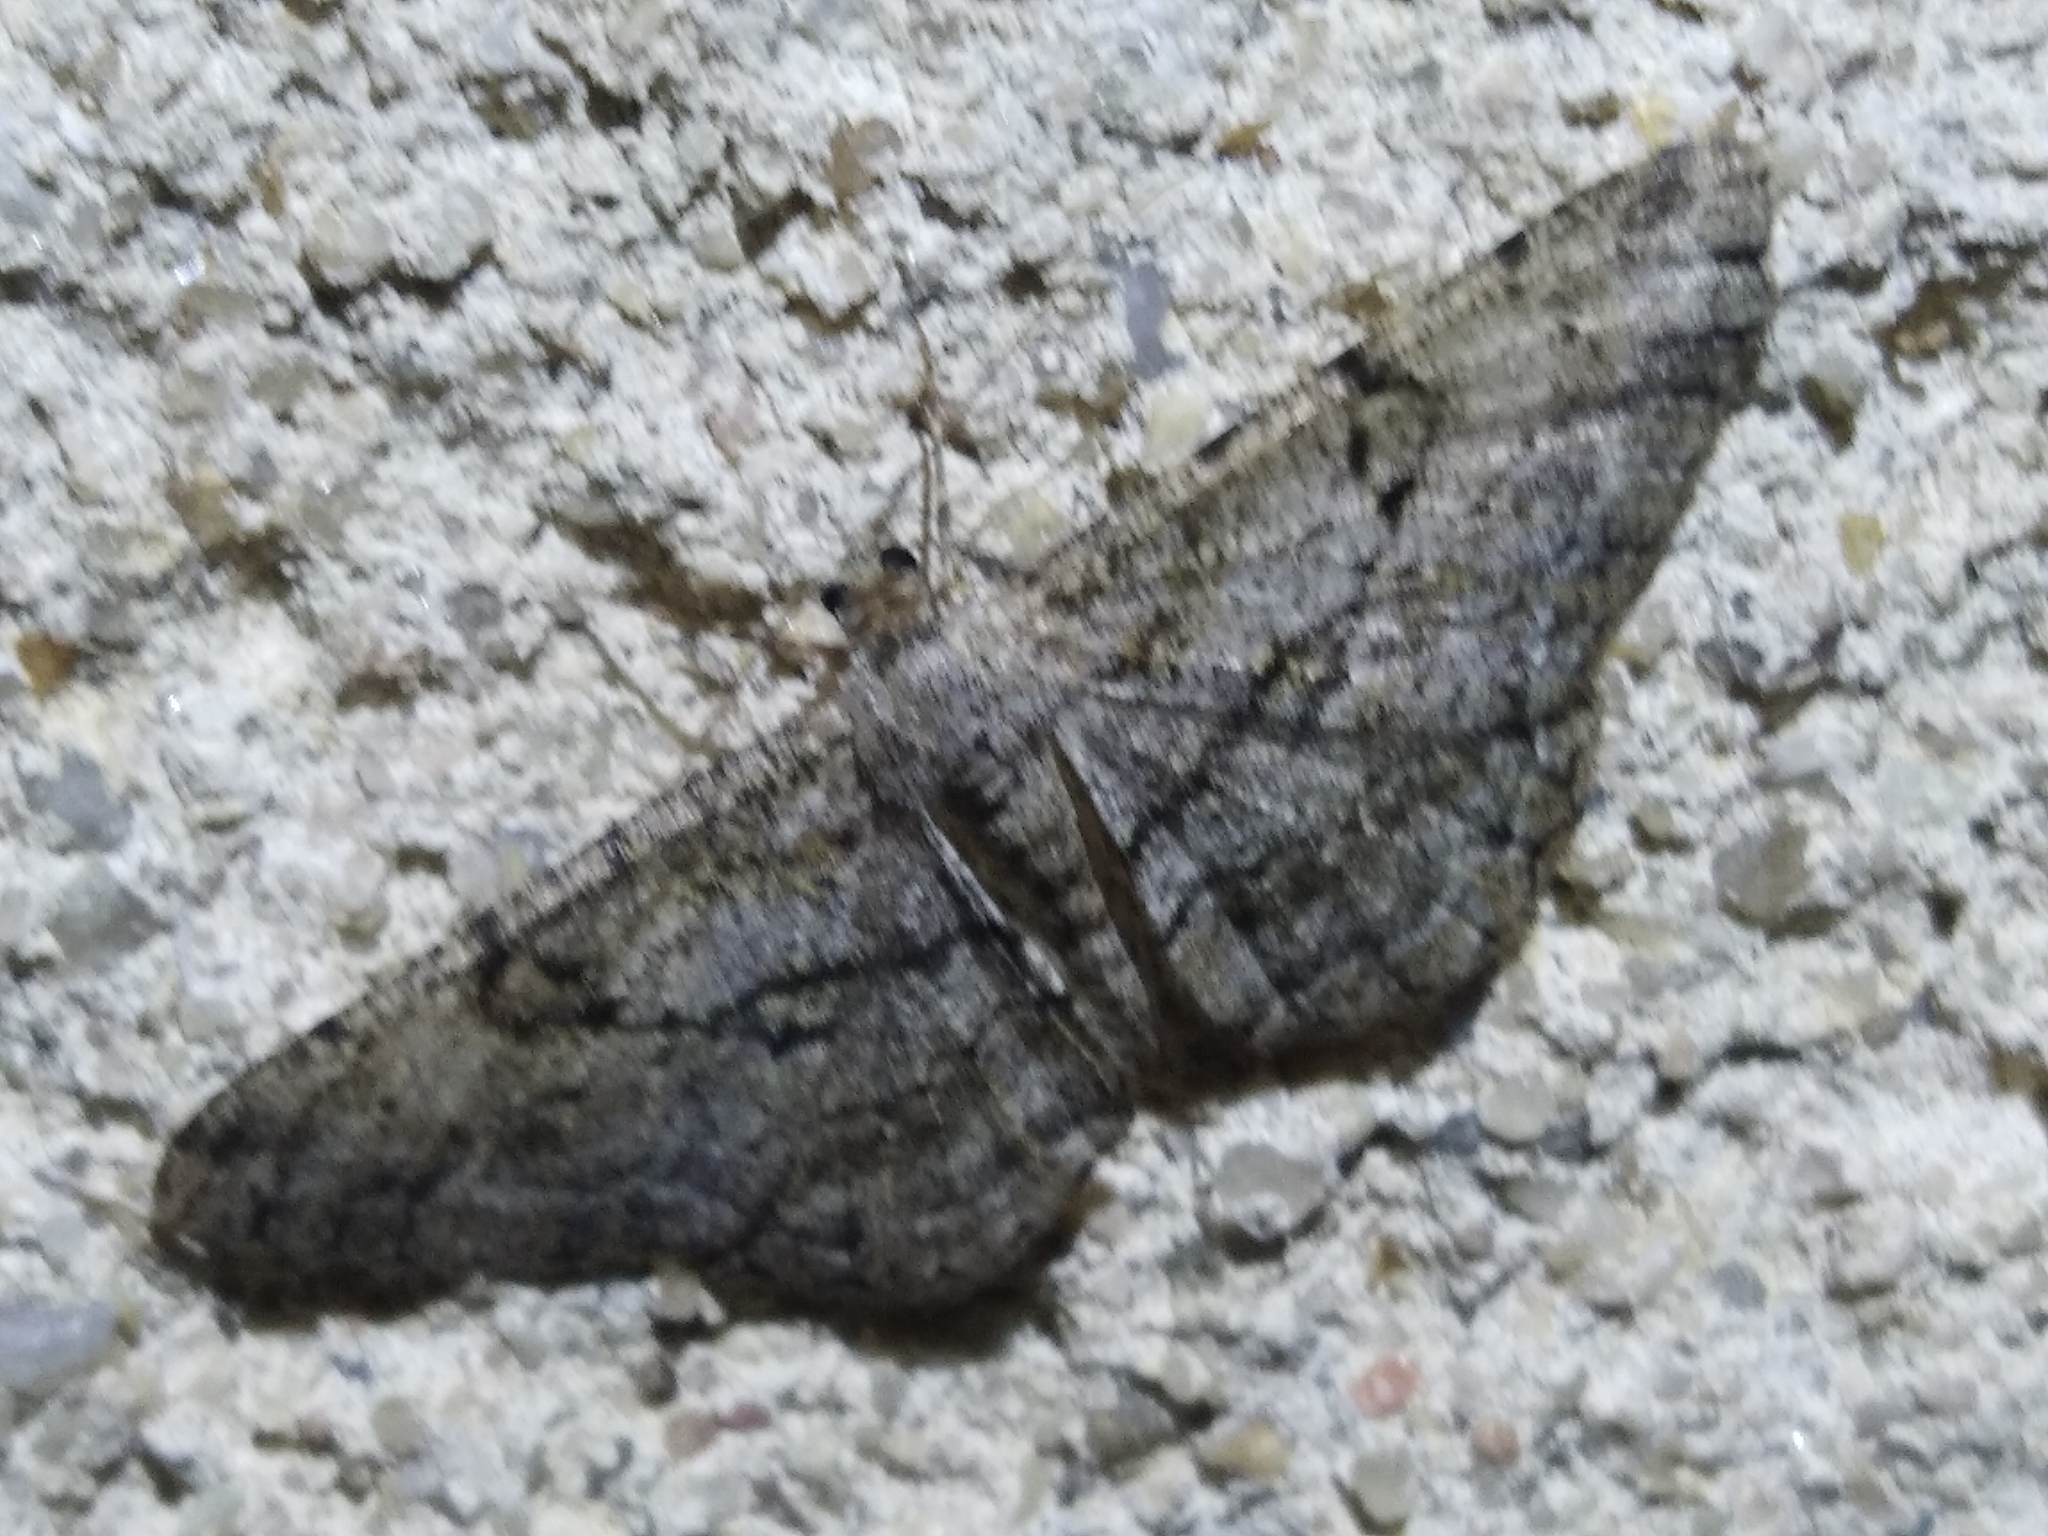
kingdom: Animalia
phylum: Arthropoda
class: Insecta
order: Lepidoptera
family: Geometridae
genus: Peribatodes
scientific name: Peribatodes rhomboidaria
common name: Willow beauty
